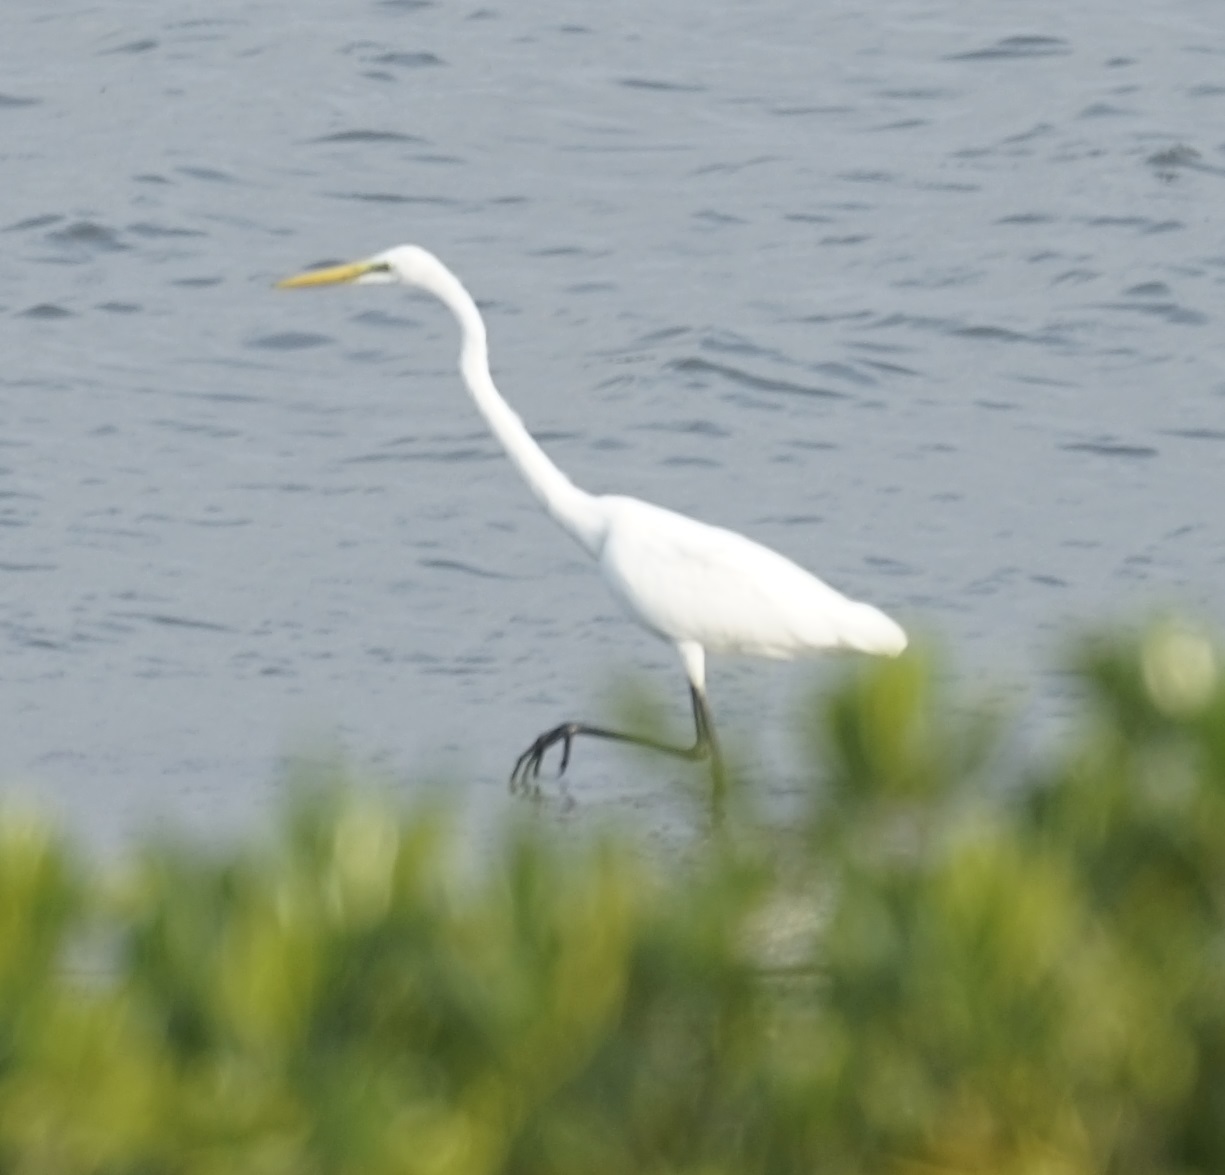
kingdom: Animalia
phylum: Chordata
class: Aves
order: Pelecaniformes
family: Ardeidae
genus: Ardea
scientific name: Ardea alba
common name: Great egret
